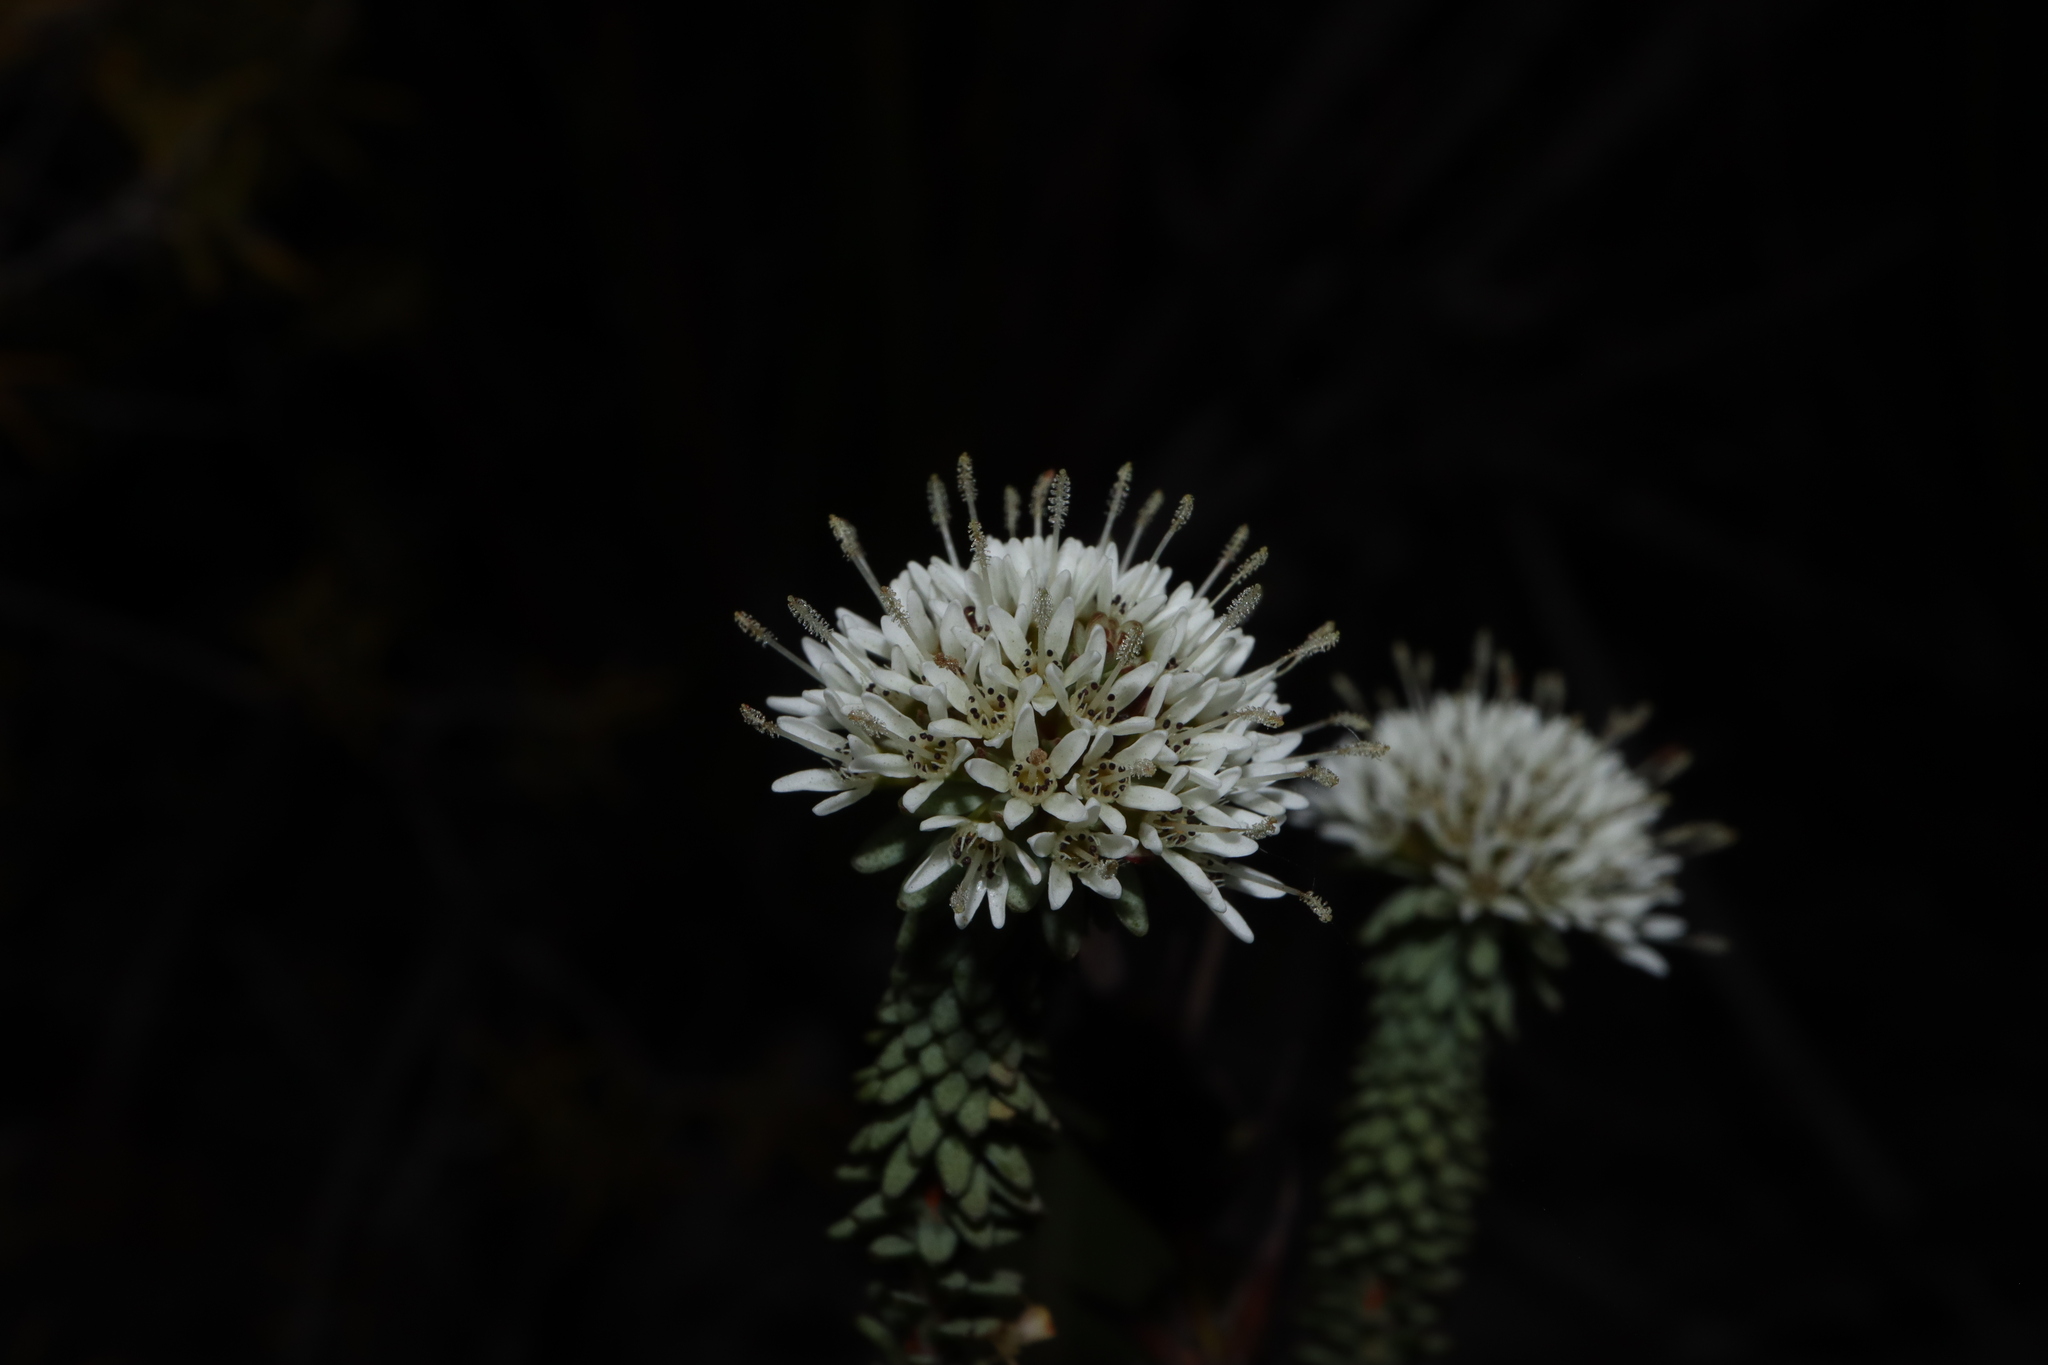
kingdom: Plantae
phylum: Tracheophyta
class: Magnoliopsida
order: Myrtales
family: Myrtaceae
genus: Darwinia
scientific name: Darwinia vestita
